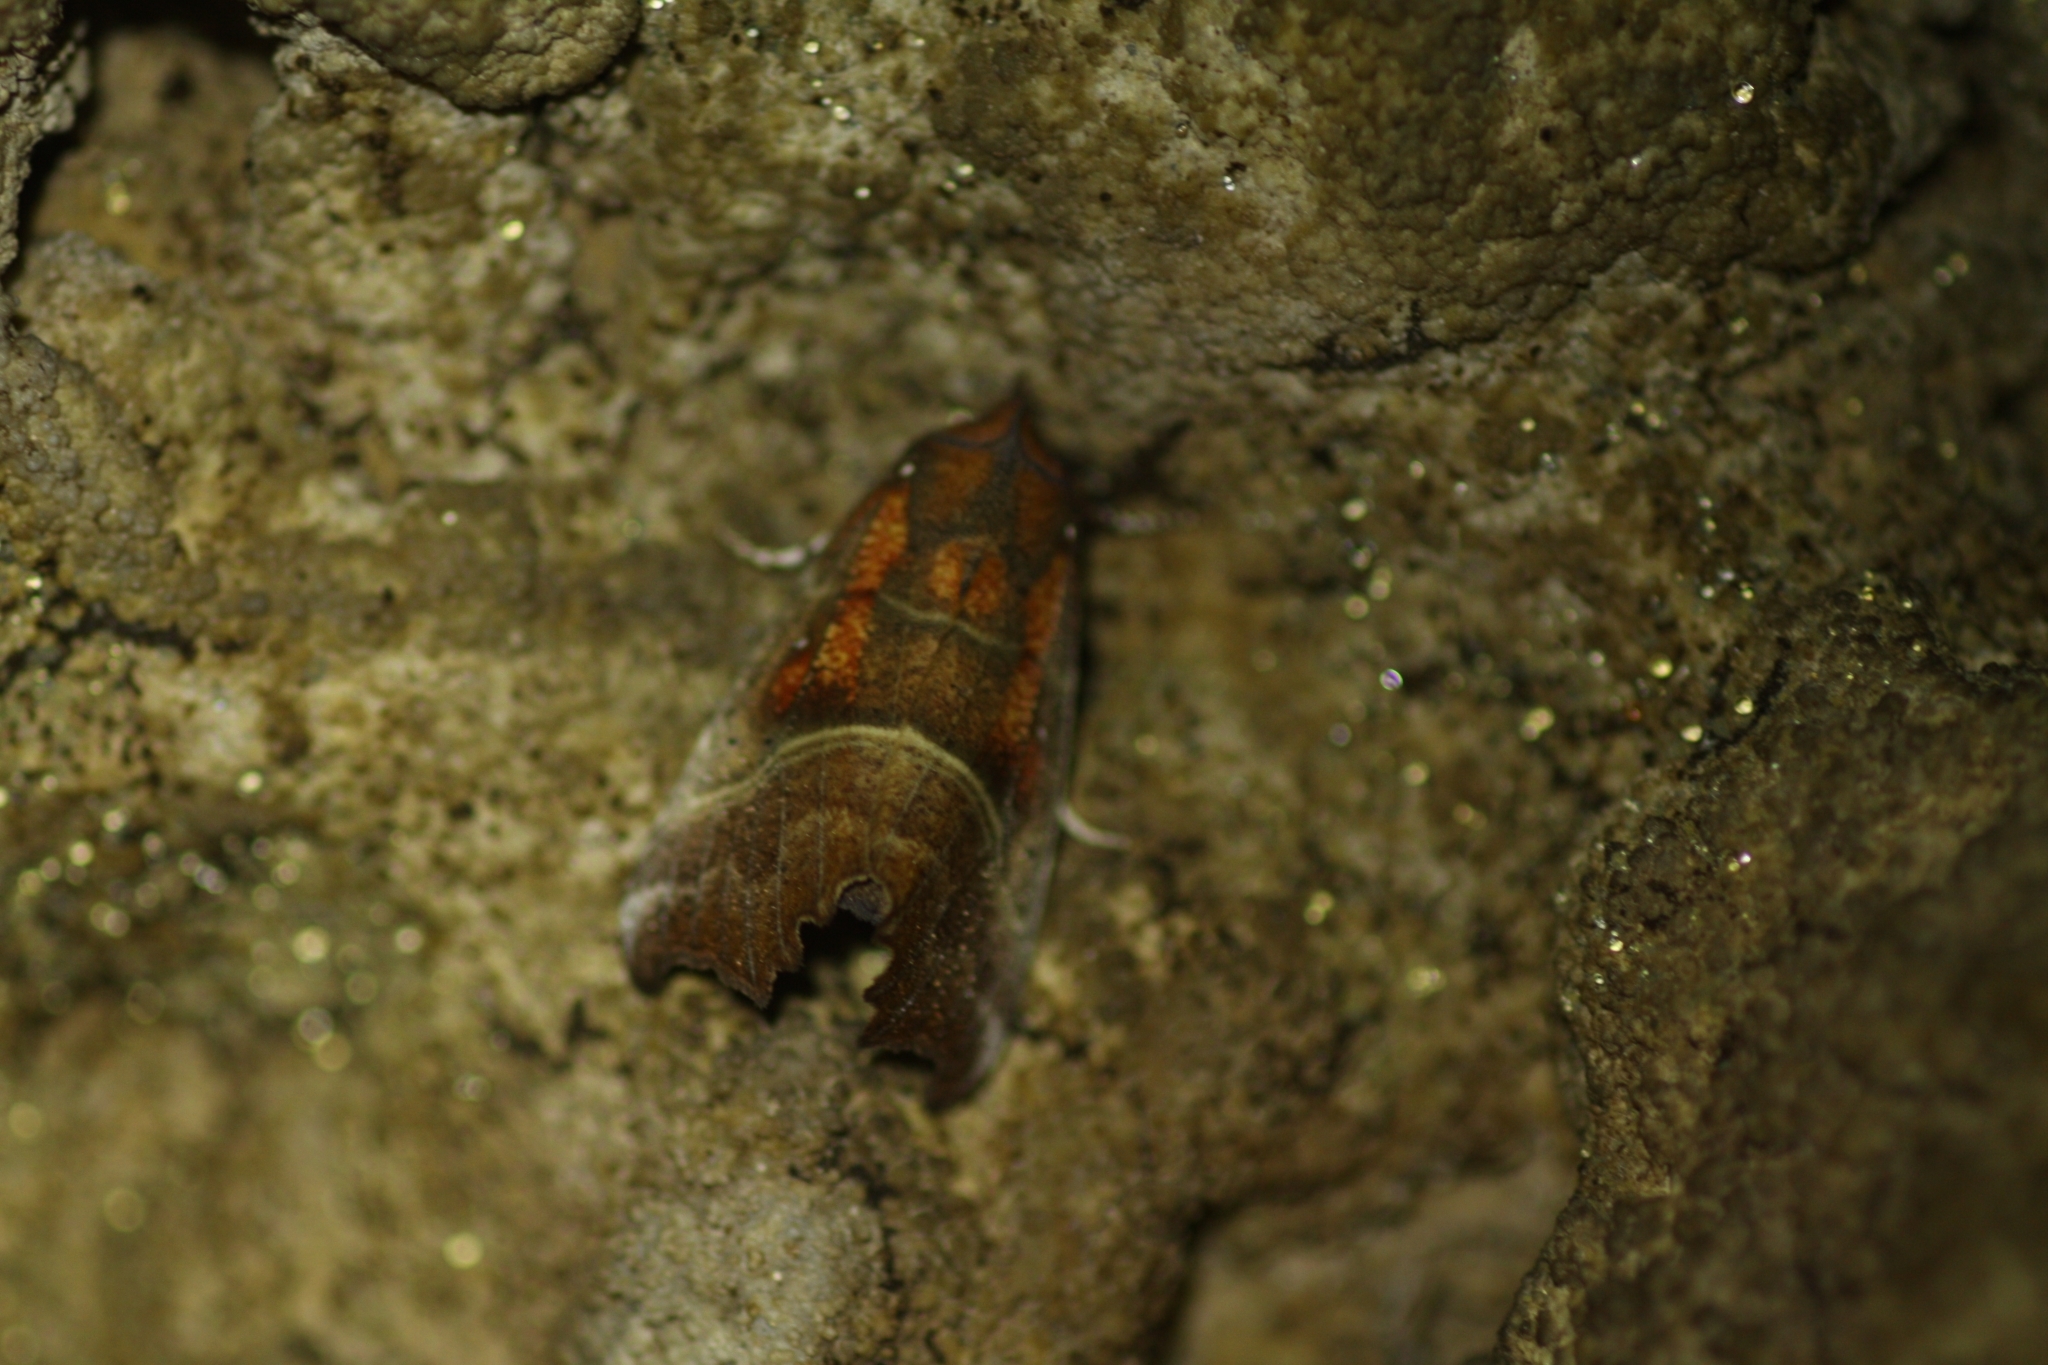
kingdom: Animalia
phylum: Arthropoda
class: Insecta
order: Lepidoptera
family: Erebidae
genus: Scoliopteryx
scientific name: Scoliopteryx libatrix
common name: Herald
